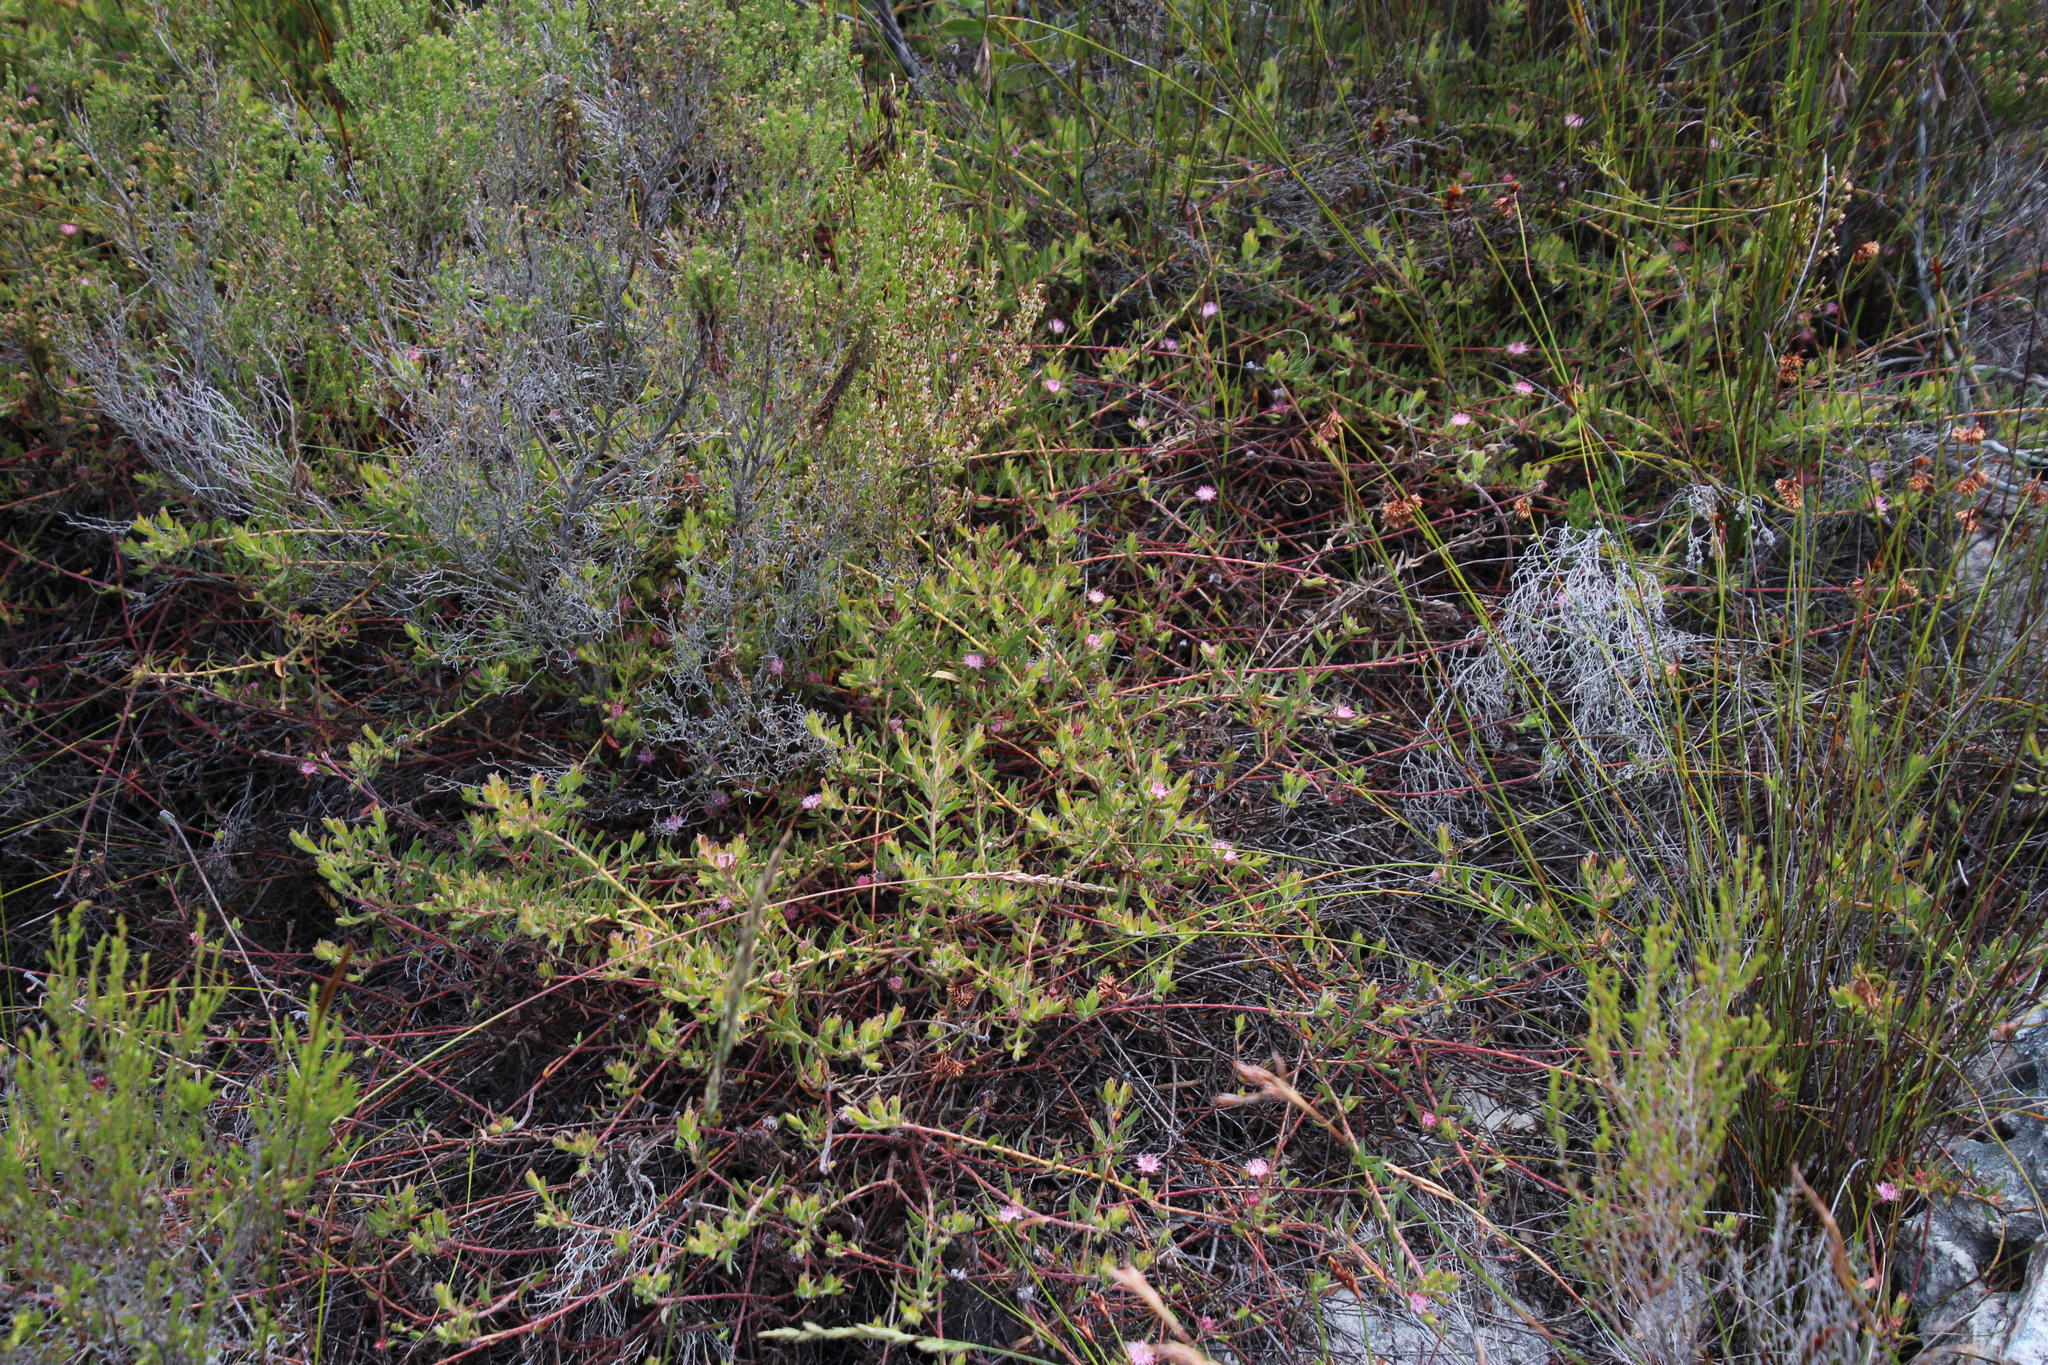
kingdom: Plantae
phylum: Tracheophyta
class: Magnoliopsida
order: Proteales
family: Proteaceae
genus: Diastella
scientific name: Diastella divaricata
